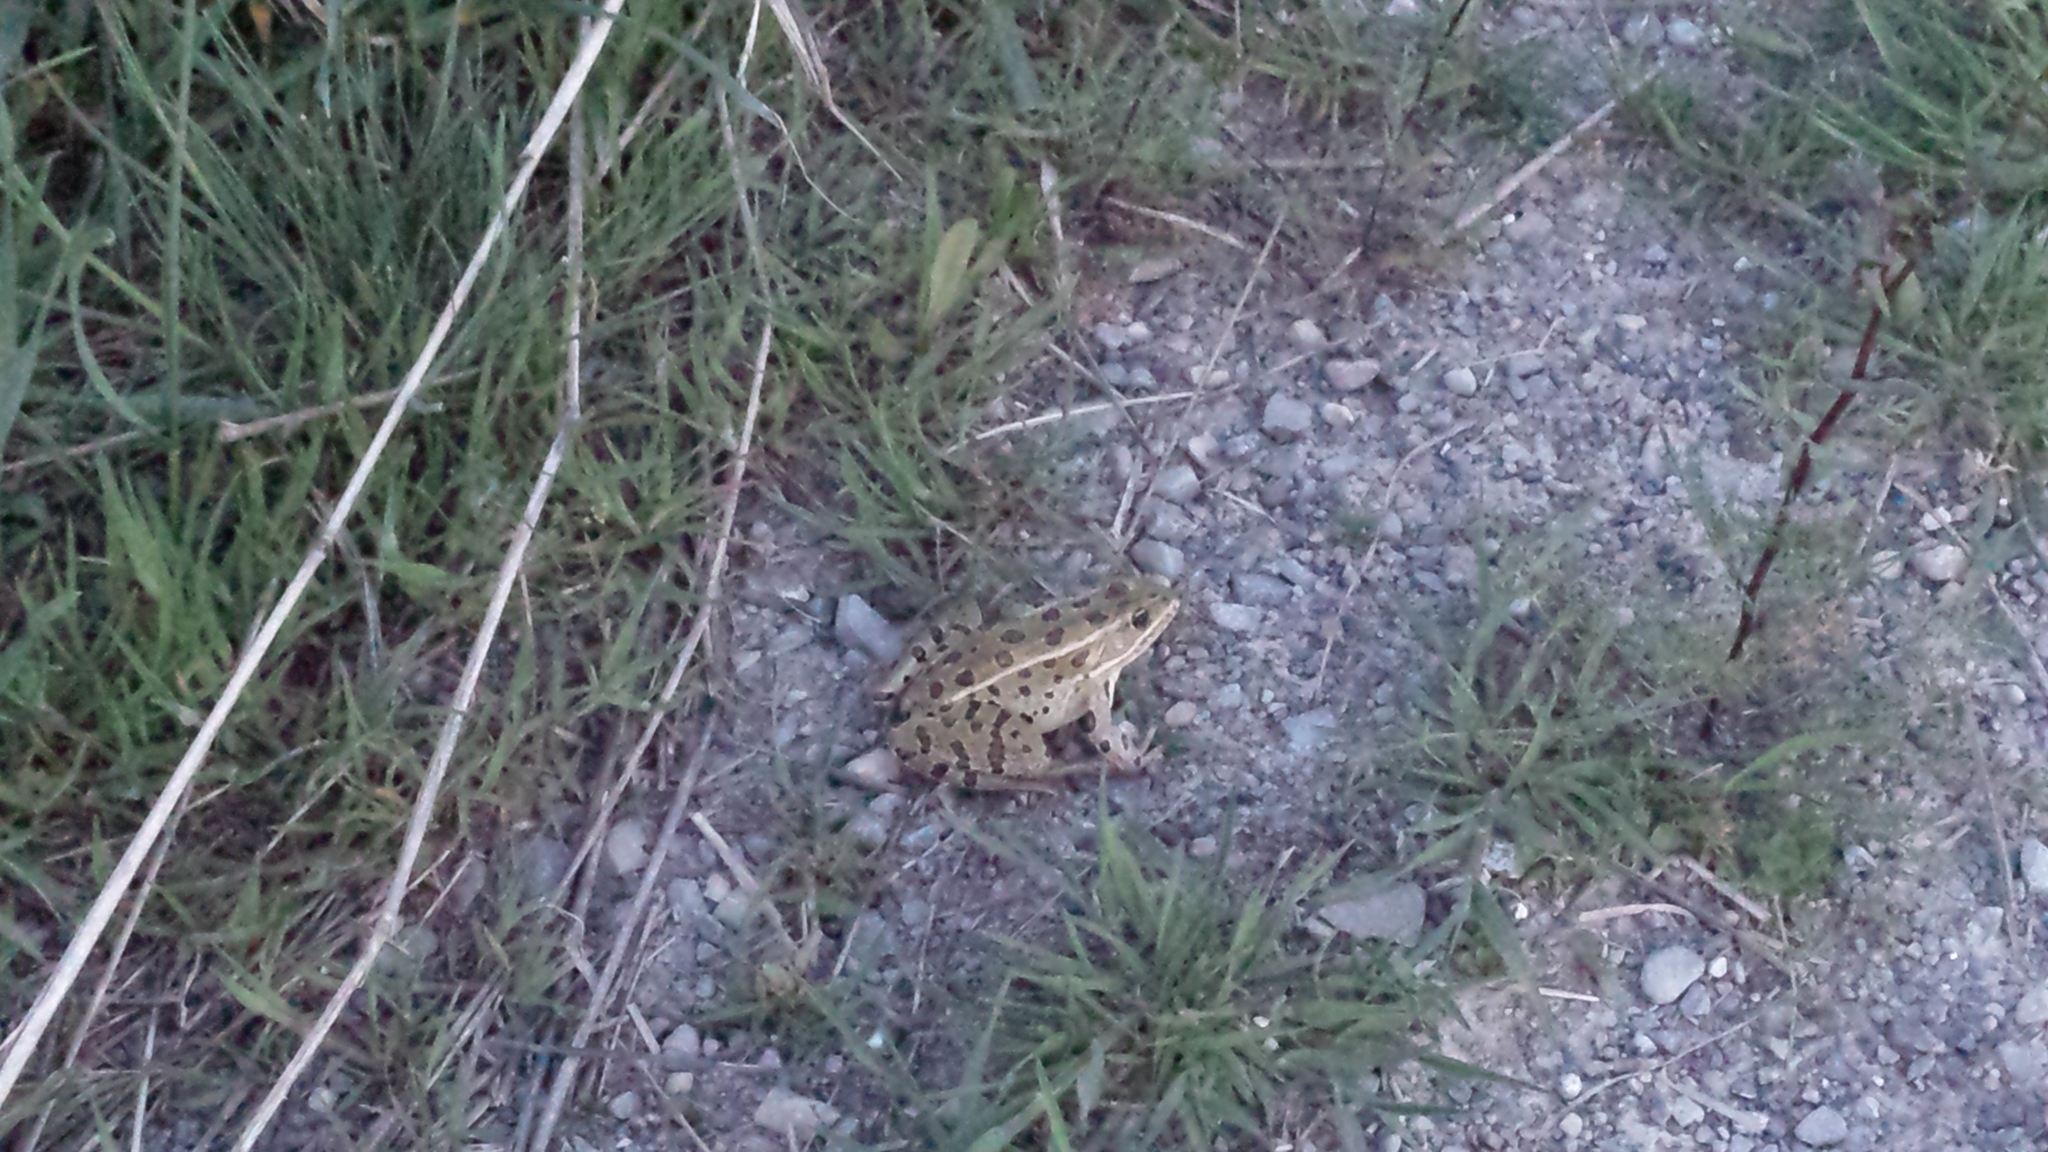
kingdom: Animalia
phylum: Chordata
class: Amphibia
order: Anura
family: Ranidae
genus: Lithobates
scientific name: Lithobates pipiens
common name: Northern leopard frog
